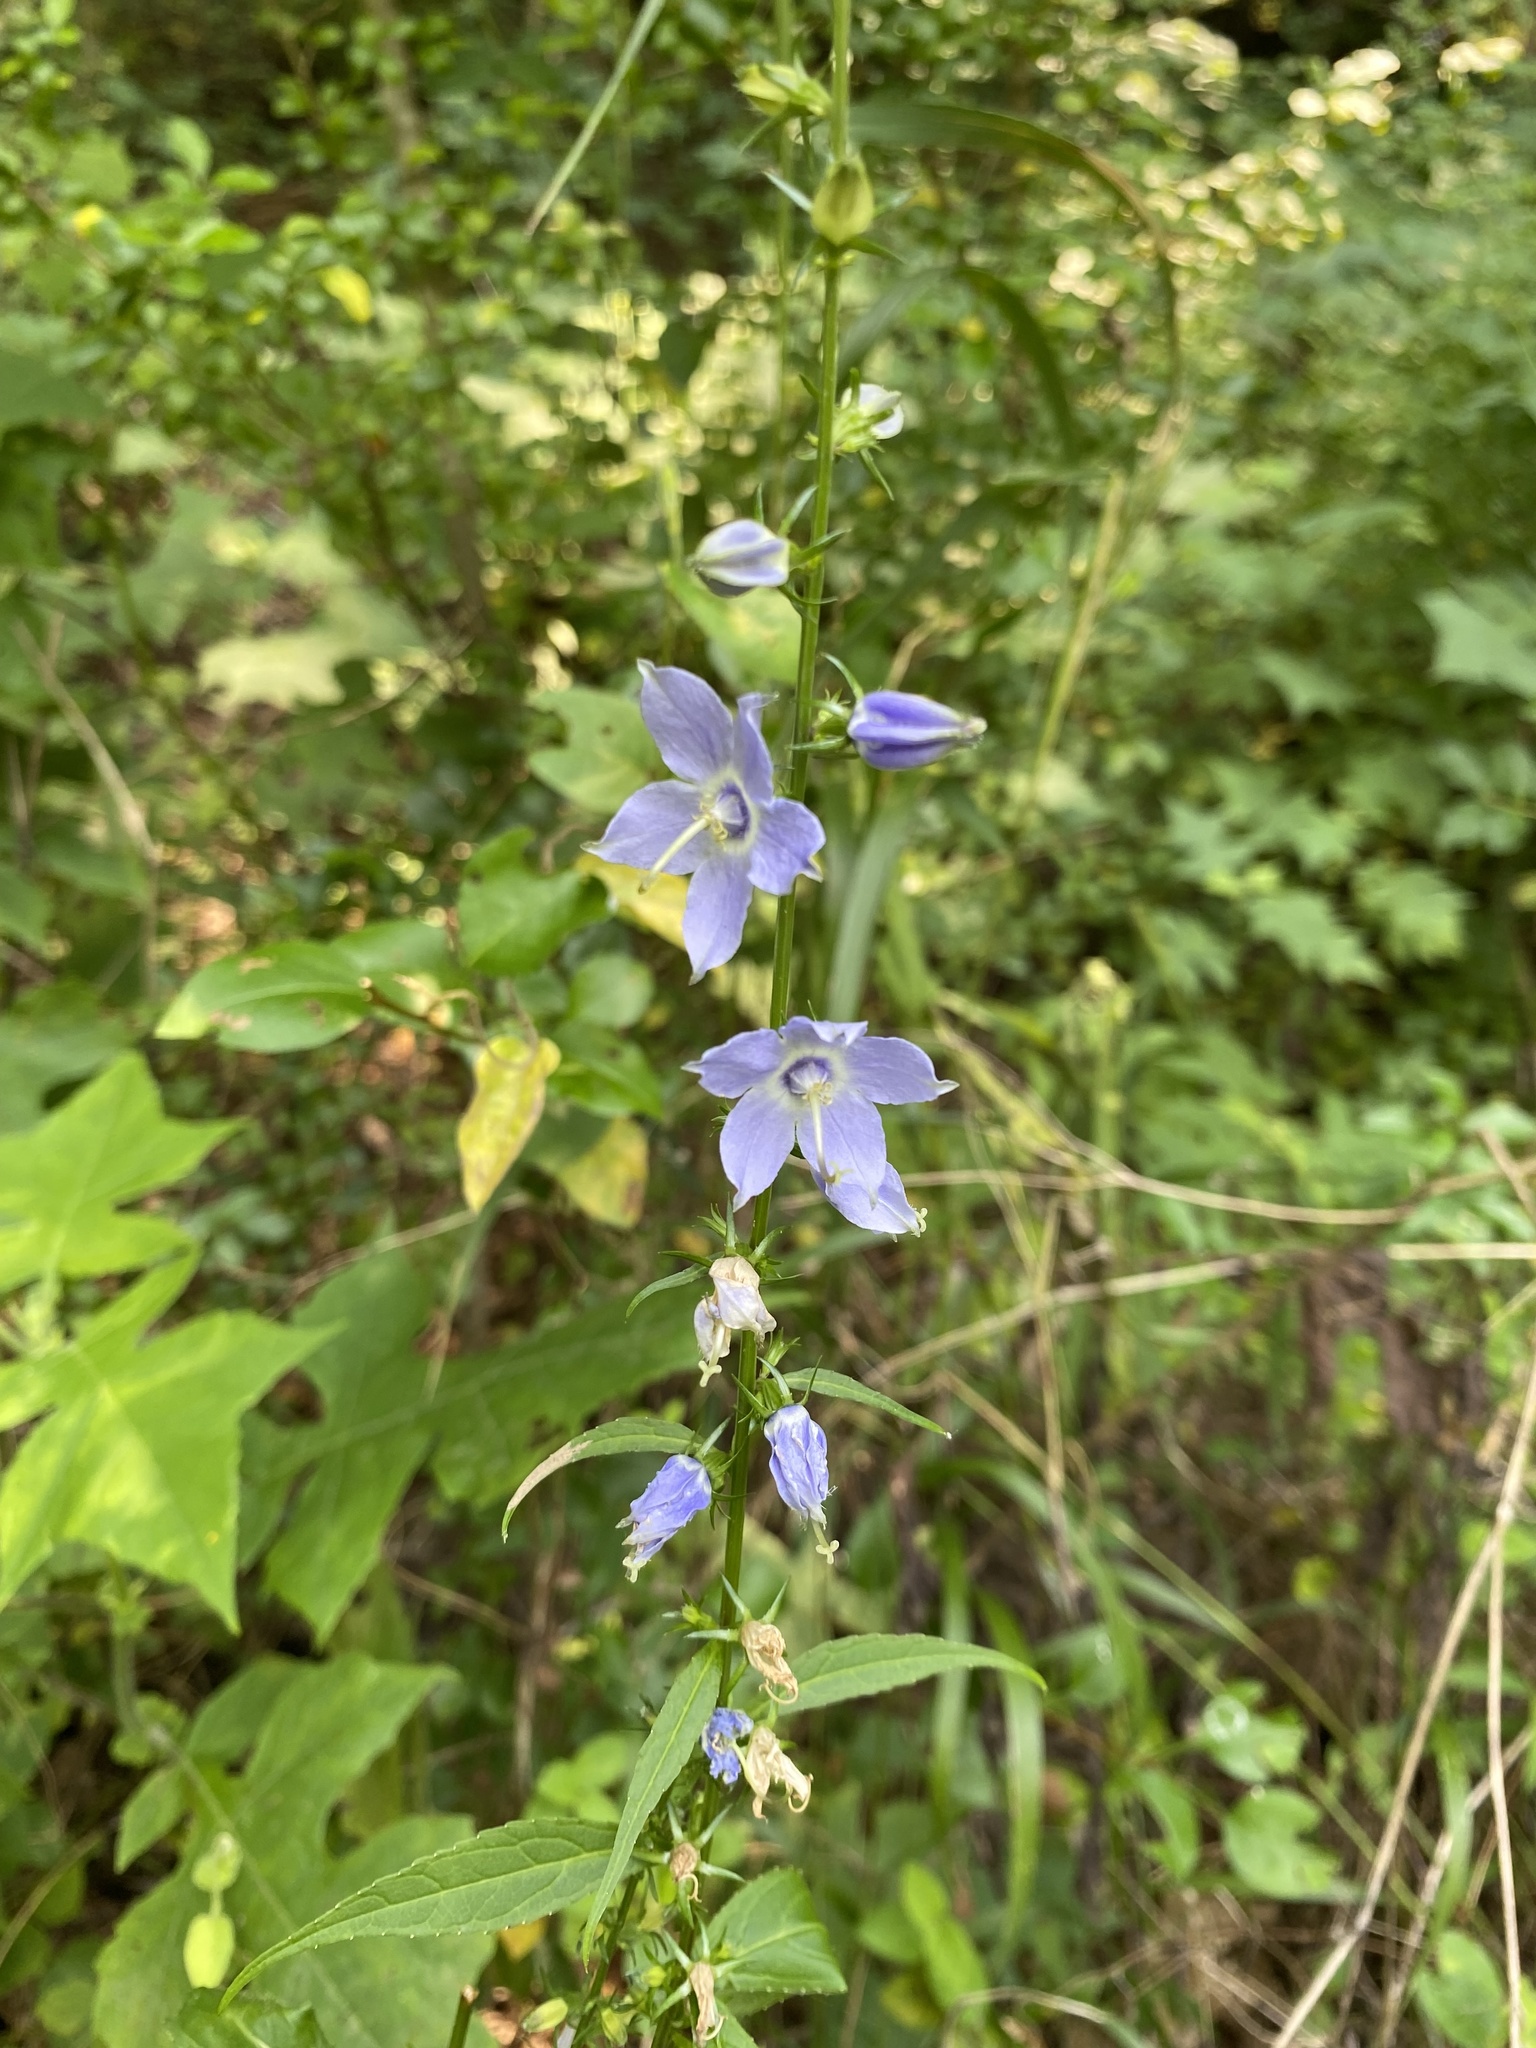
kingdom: Plantae
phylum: Tracheophyta
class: Magnoliopsida
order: Asterales
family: Campanulaceae
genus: Campanulastrum
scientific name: Campanulastrum americanum
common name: American bellflower
